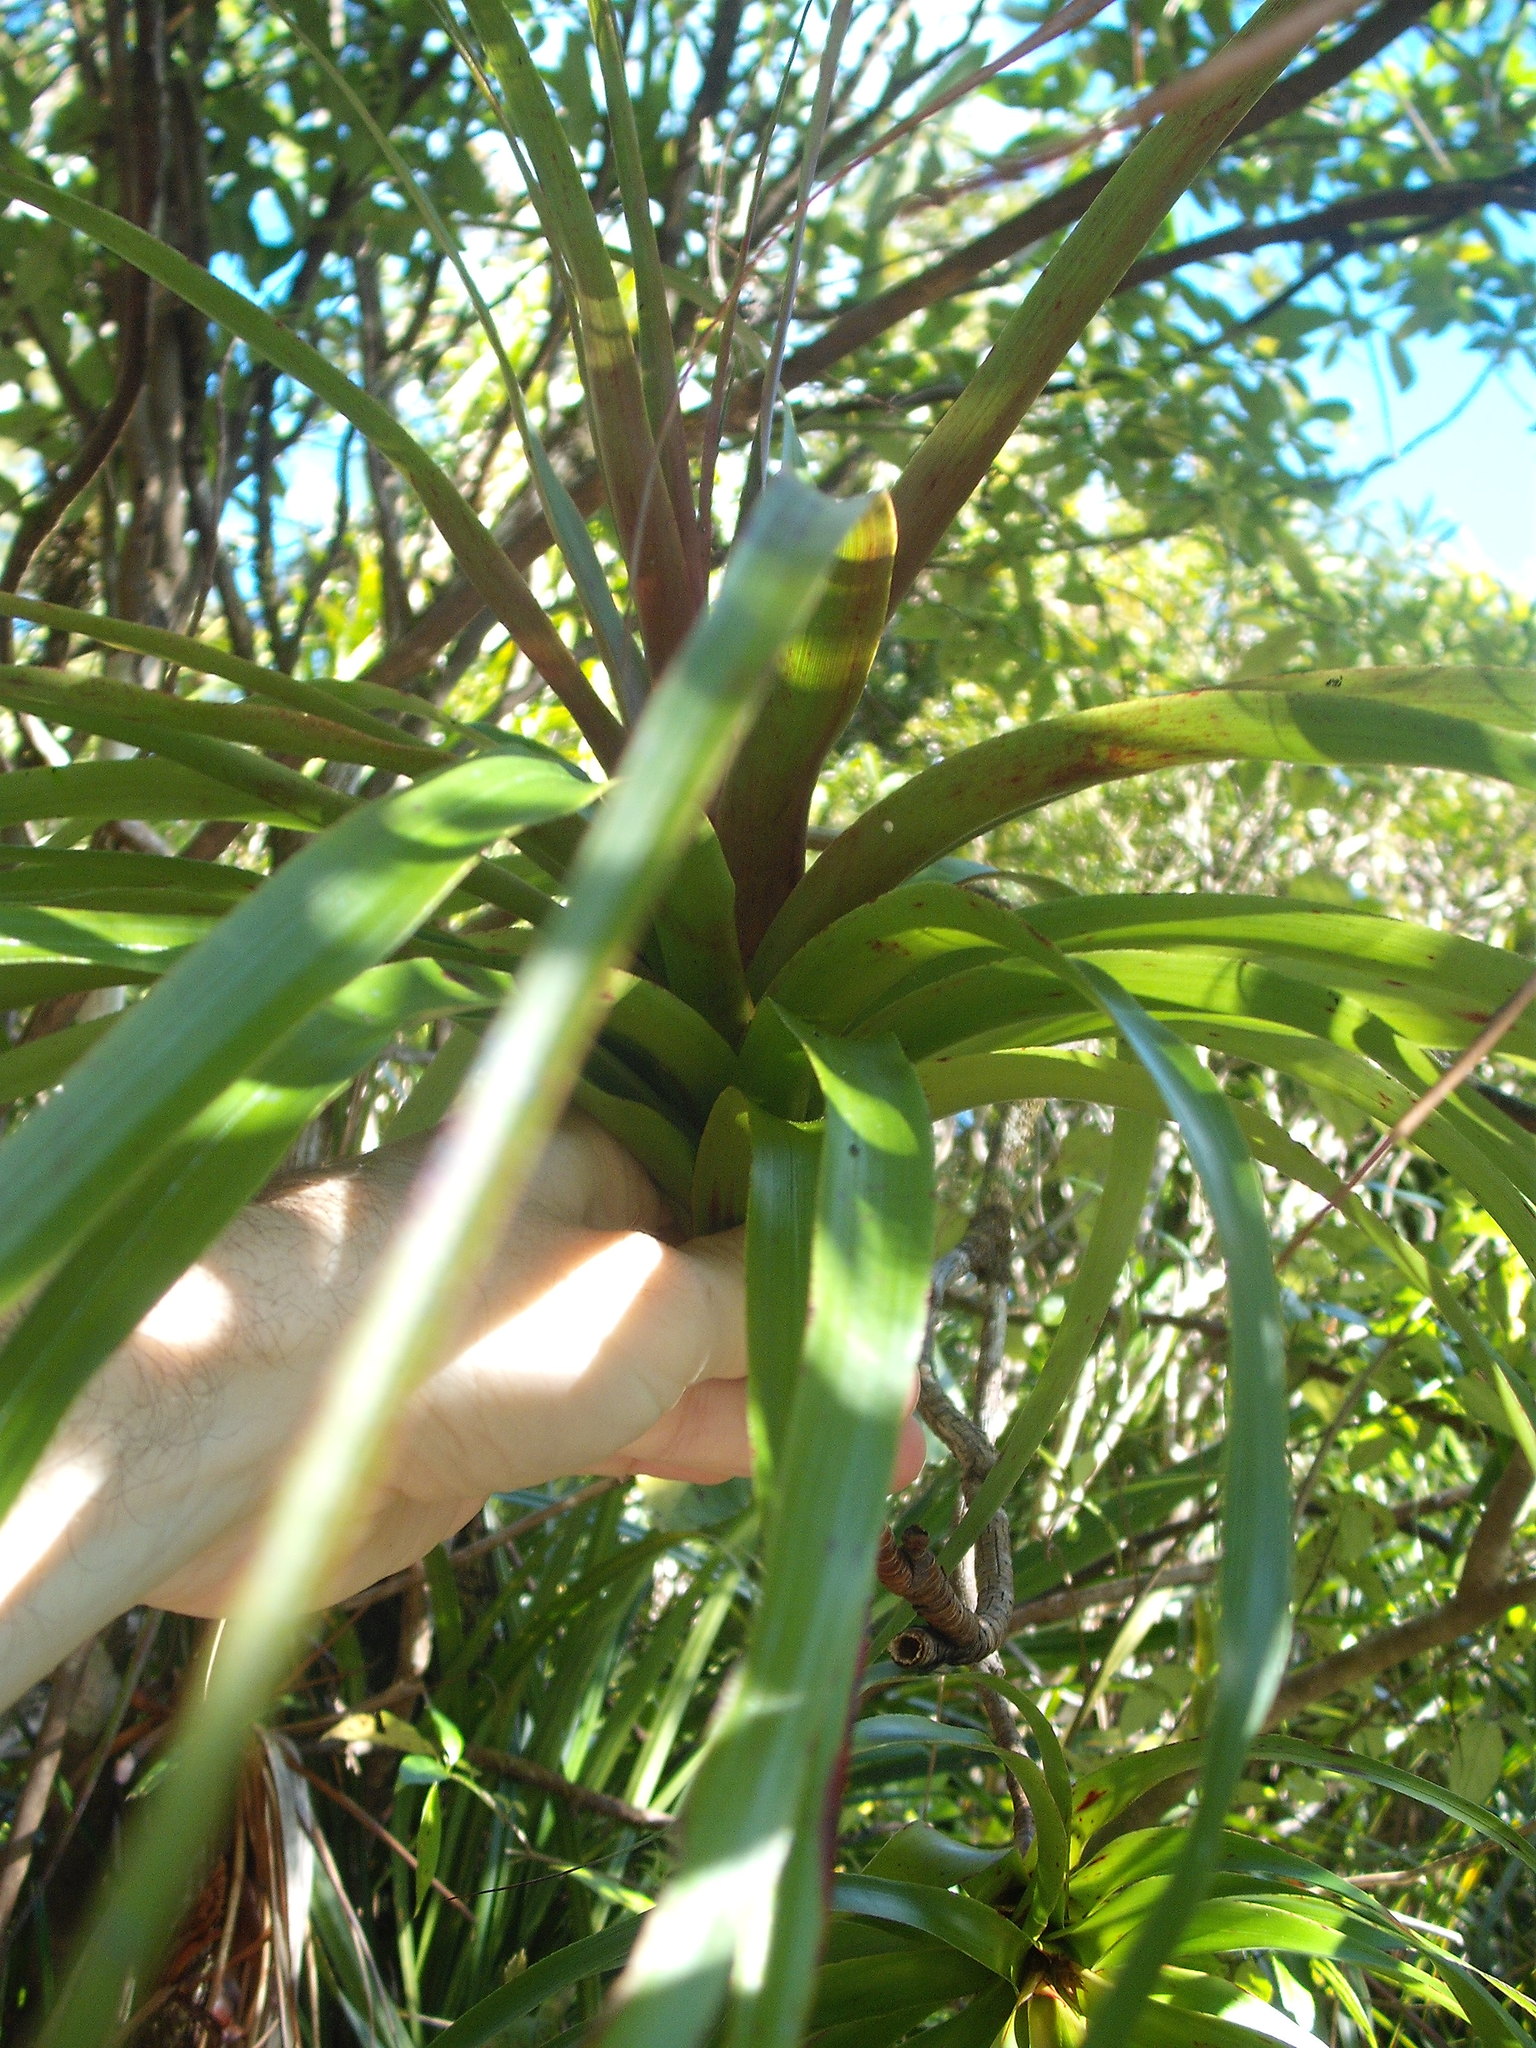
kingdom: Plantae
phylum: Tracheophyta
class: Magnoliopsida
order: Ericales
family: Ericaceae
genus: Dracophyllum
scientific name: Dracophyllum latifolium
